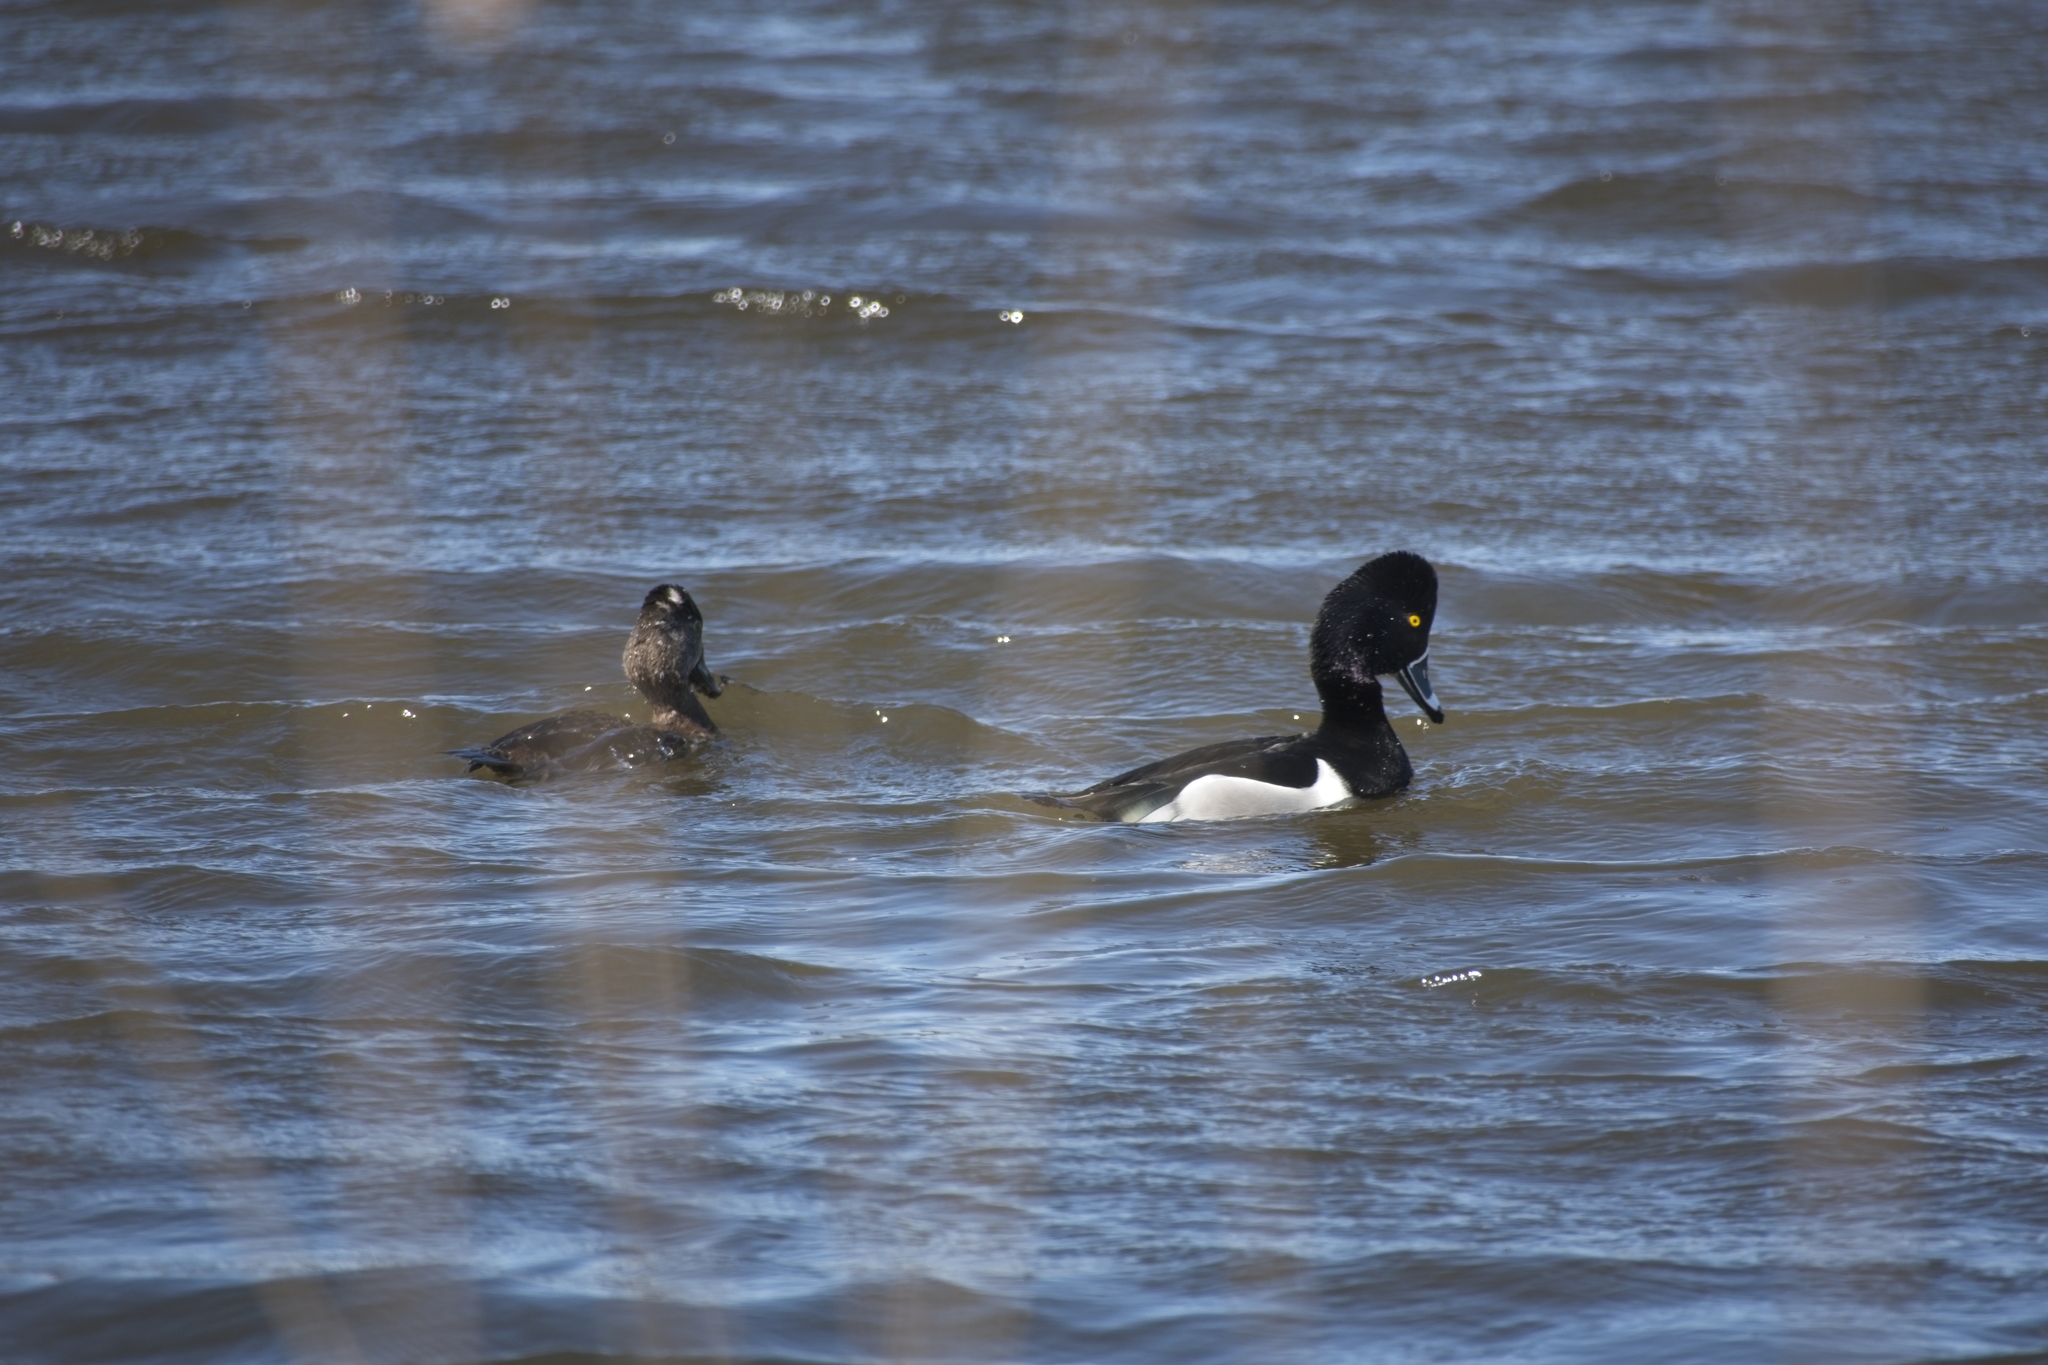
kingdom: Animalia
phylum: Chordata
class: Aves
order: Anseriformes
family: Anatidae
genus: Aythya
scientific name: Aythya collaris
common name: Ring-necked duck
